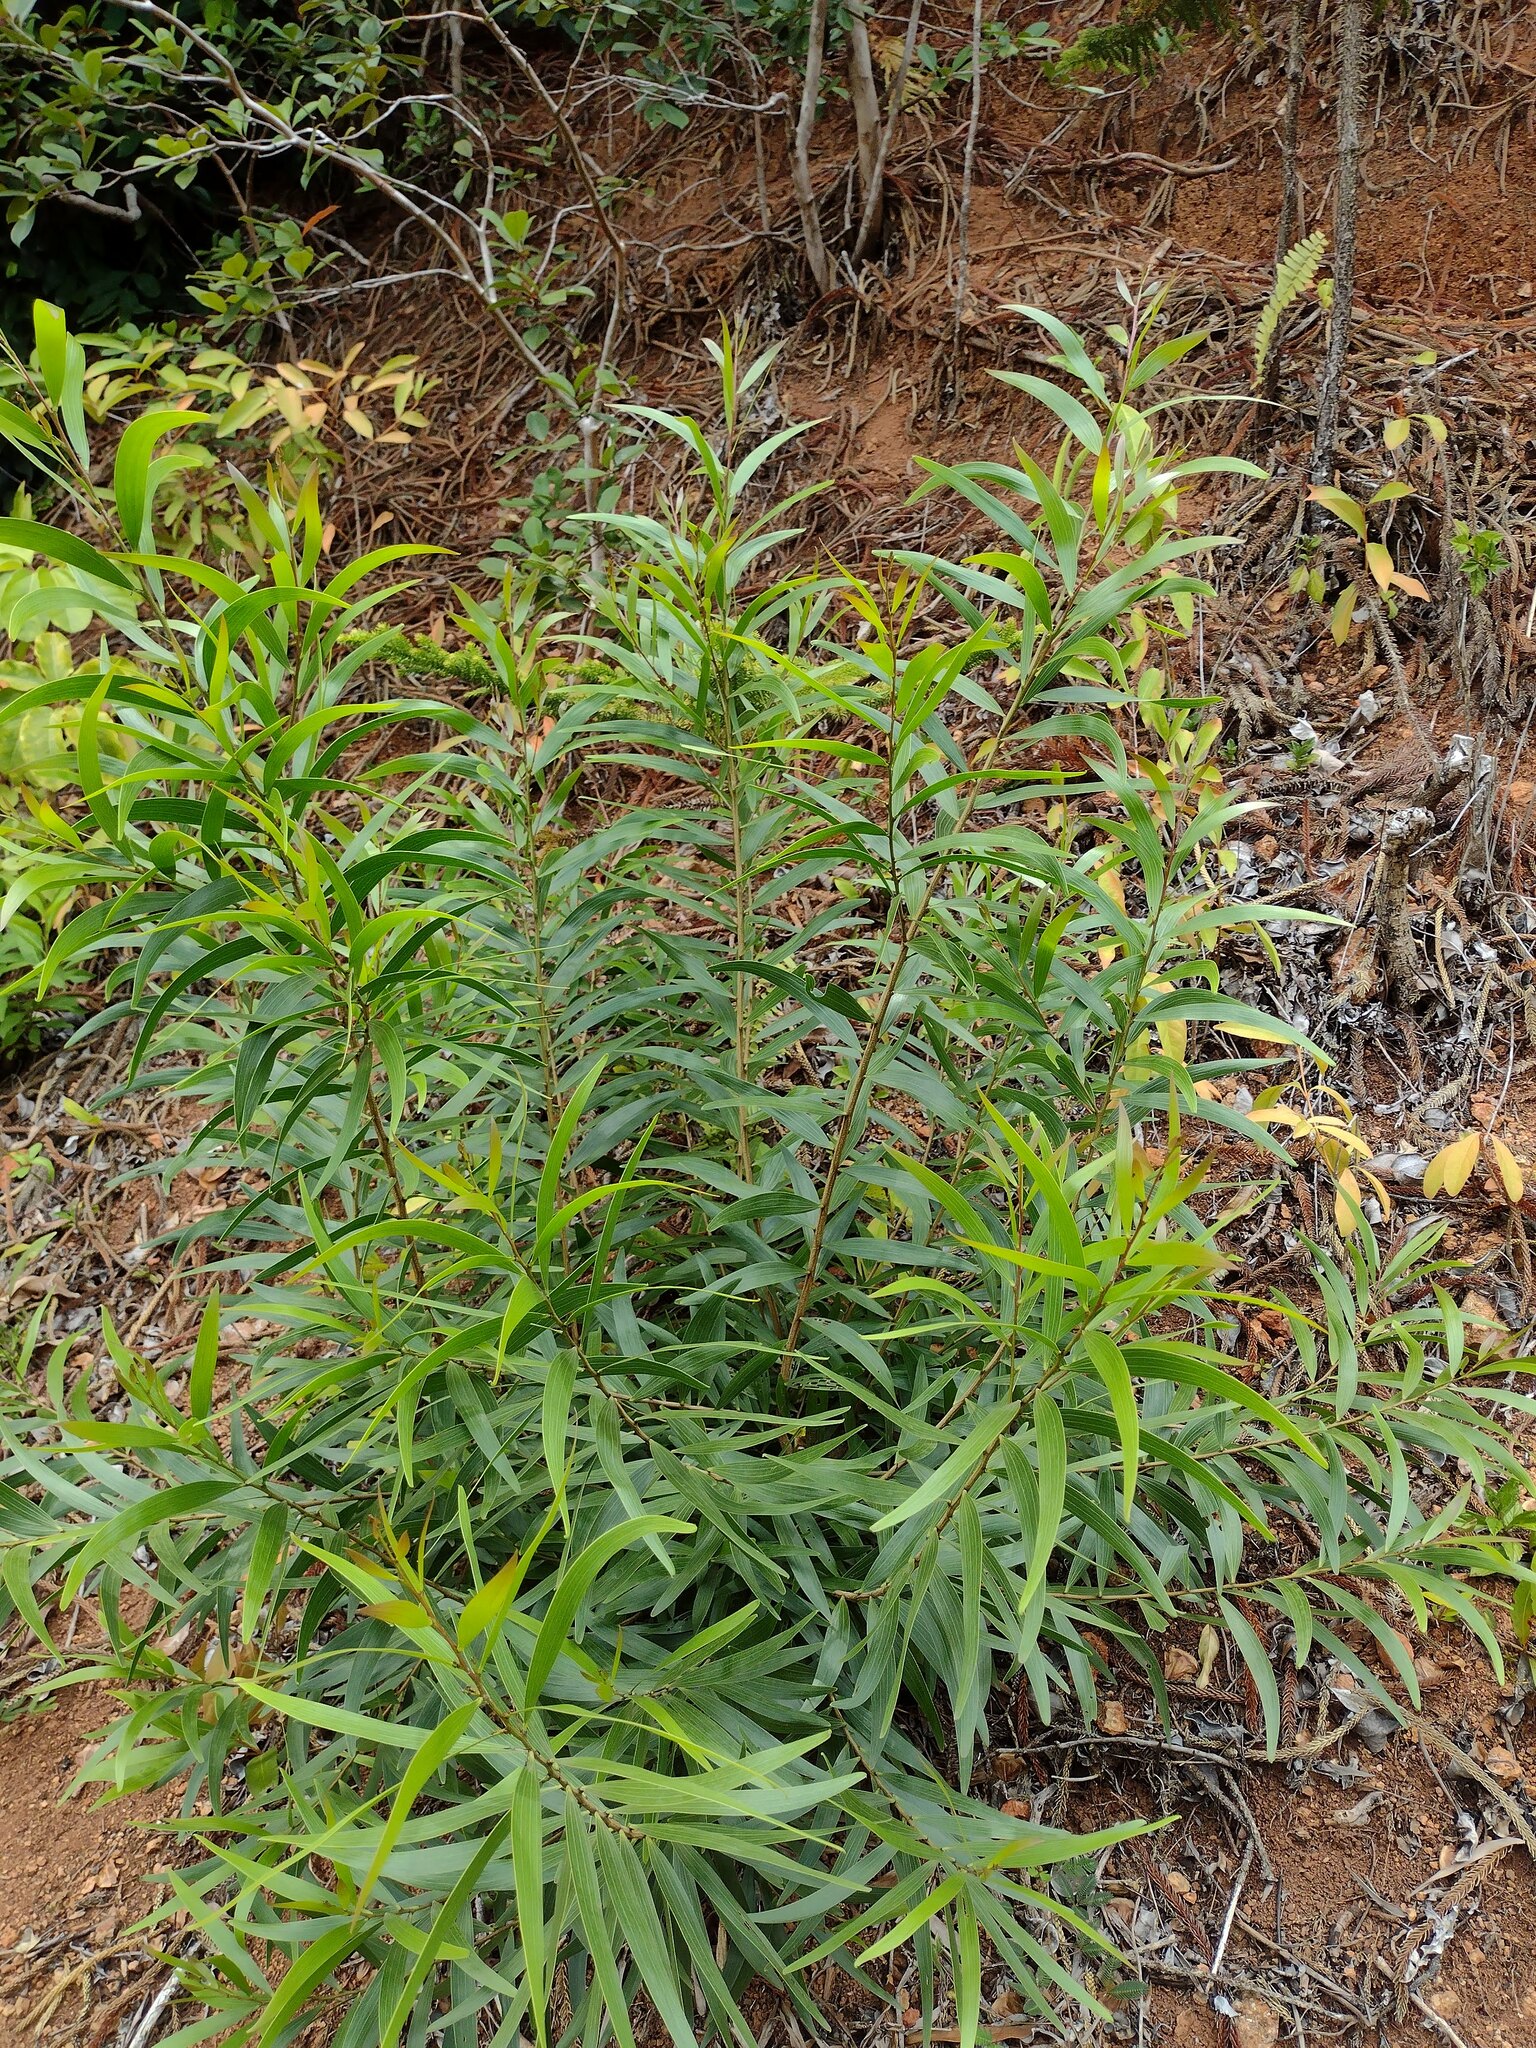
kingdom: Plantae
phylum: Tracheophyta
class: Magnoliopsida
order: Fabales
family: Fabaceae
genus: Acacia
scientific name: Acacia confusa
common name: Formosan koa
